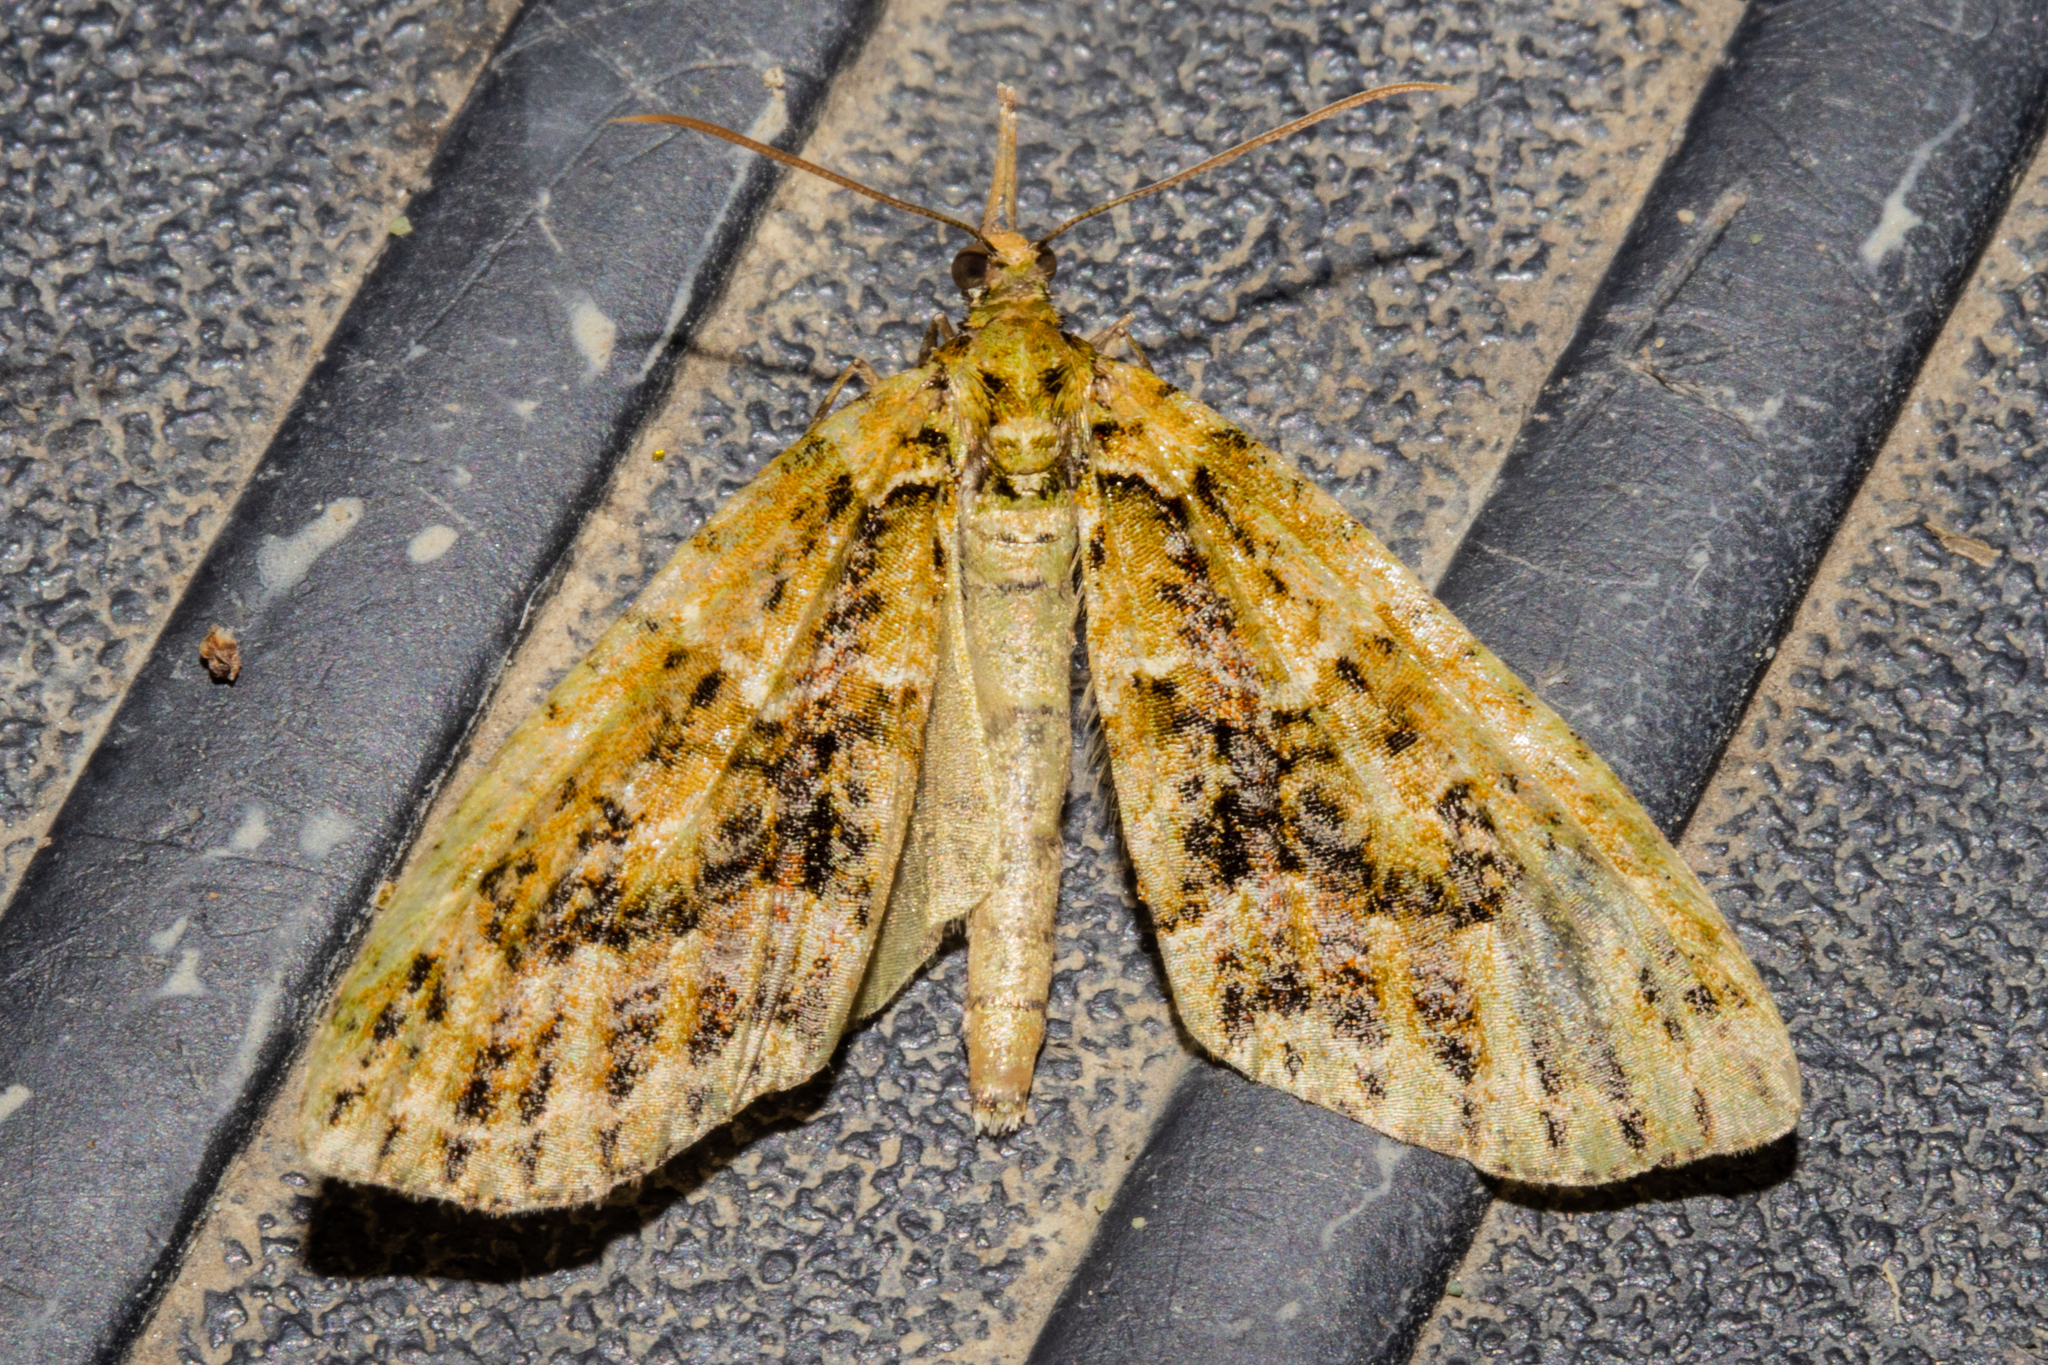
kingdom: Animalia
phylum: Arthropoda
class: Insecta
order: Lepidoptera
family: Geometridae
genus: Tatosoma
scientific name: Tatosoma tipulata
